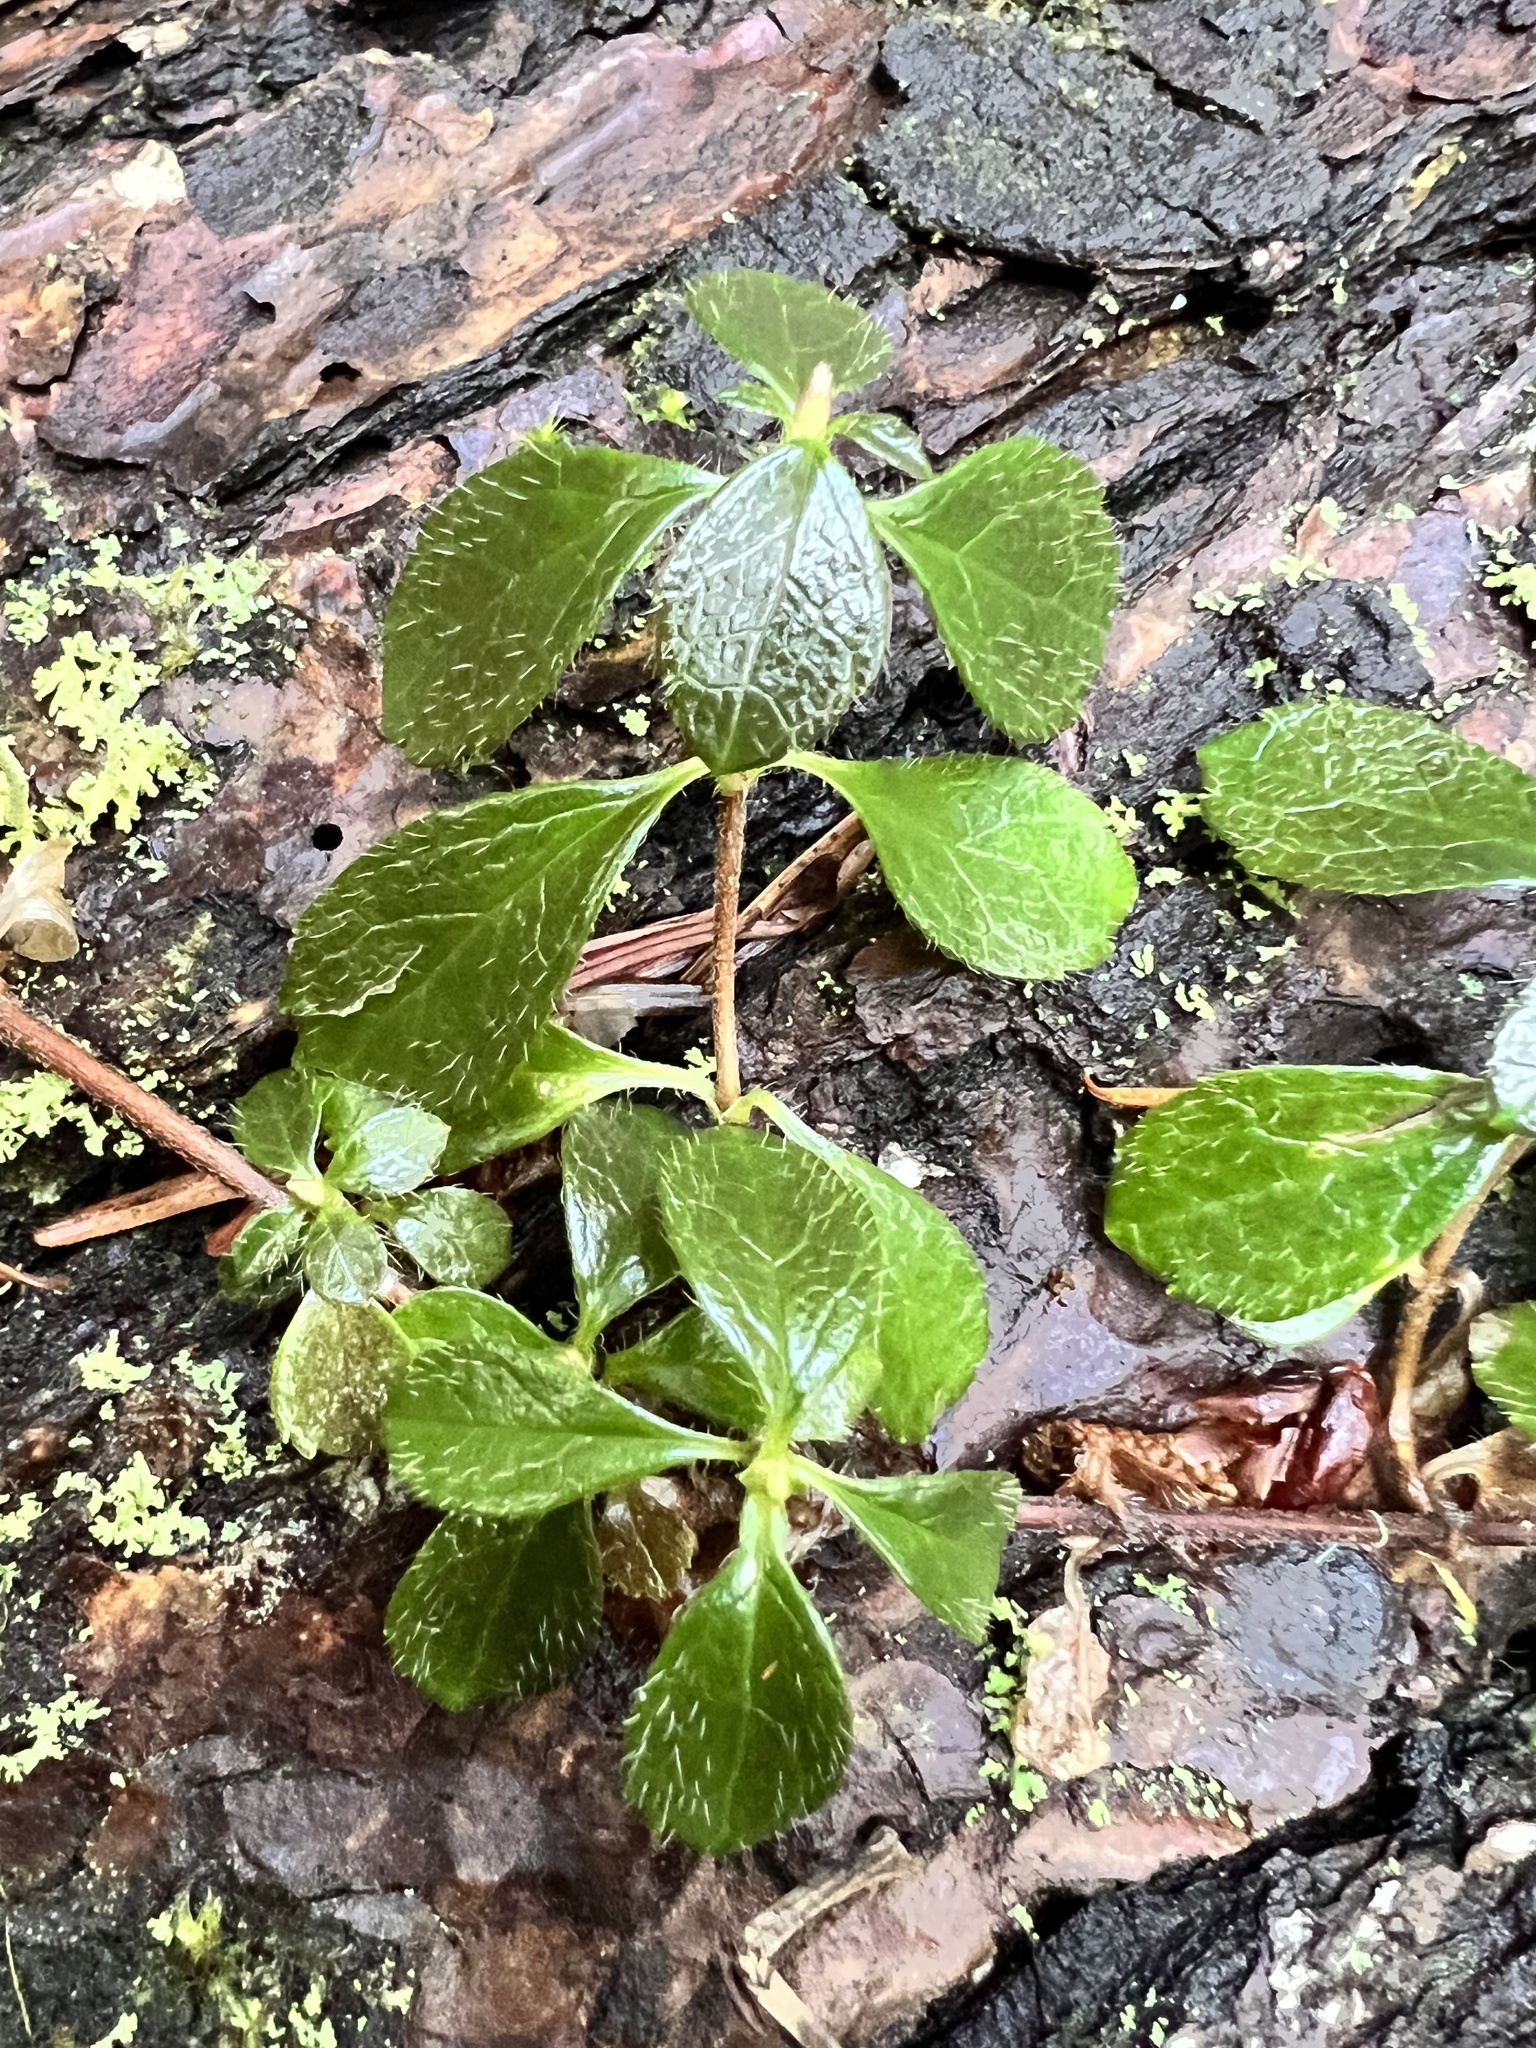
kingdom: Plantae
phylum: Tracheophyta
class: Magnoliopsida
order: Dipsacales
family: Caprifoliaceae
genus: Linnaea
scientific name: Linnaea borealis
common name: Twinflower
